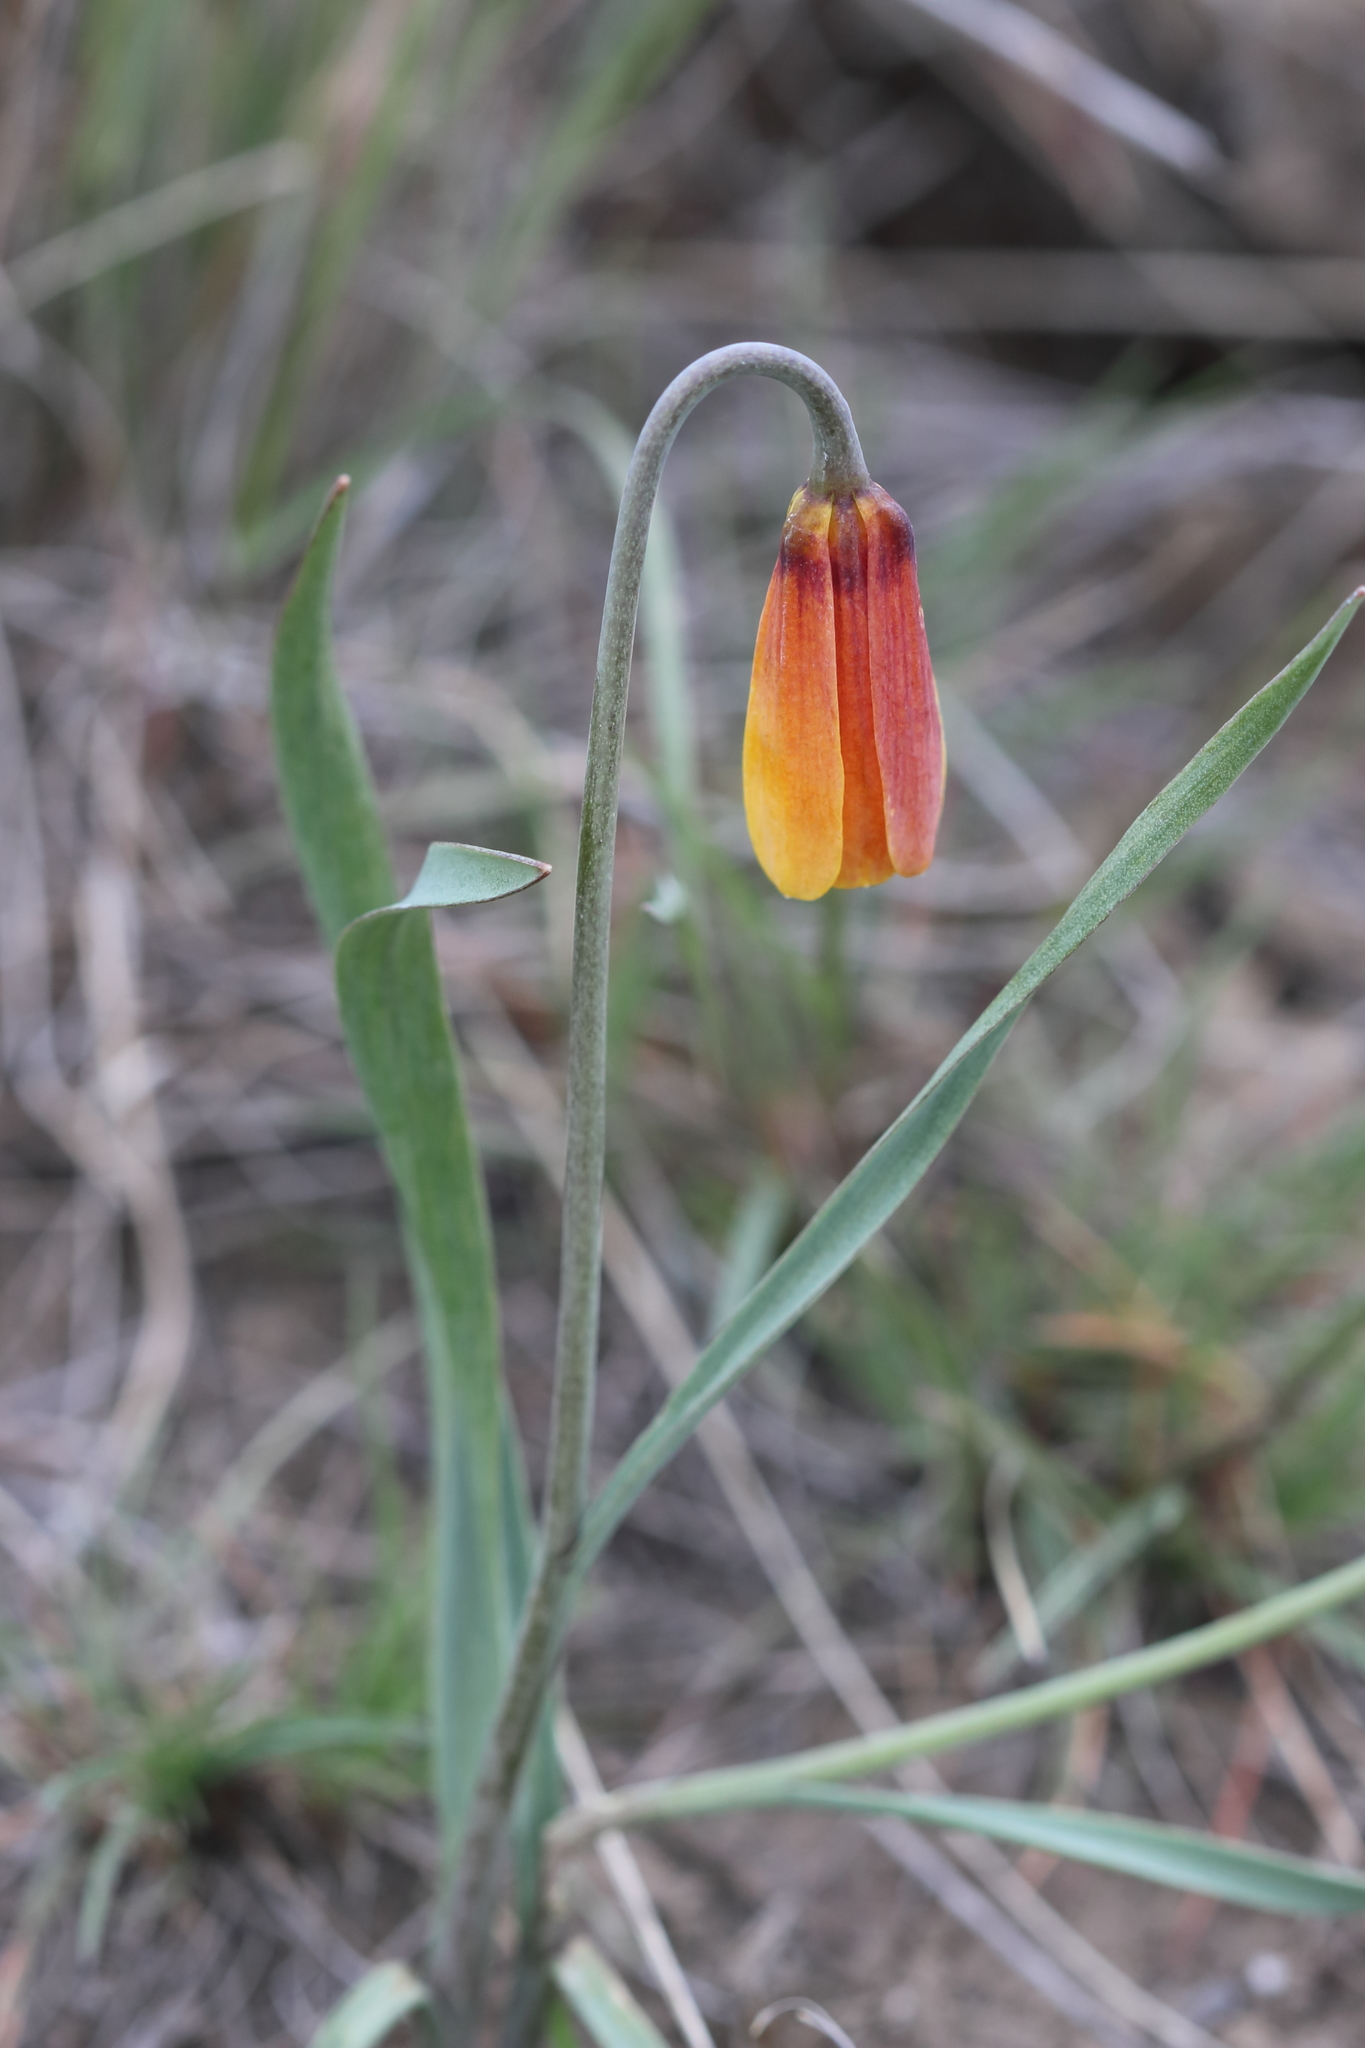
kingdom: Plantae
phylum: Tracheophyta
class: Liliopsida
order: Liliales
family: Liliaceae
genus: Fritillaria
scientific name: Fritillaria pudica
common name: Yellow fritillary
